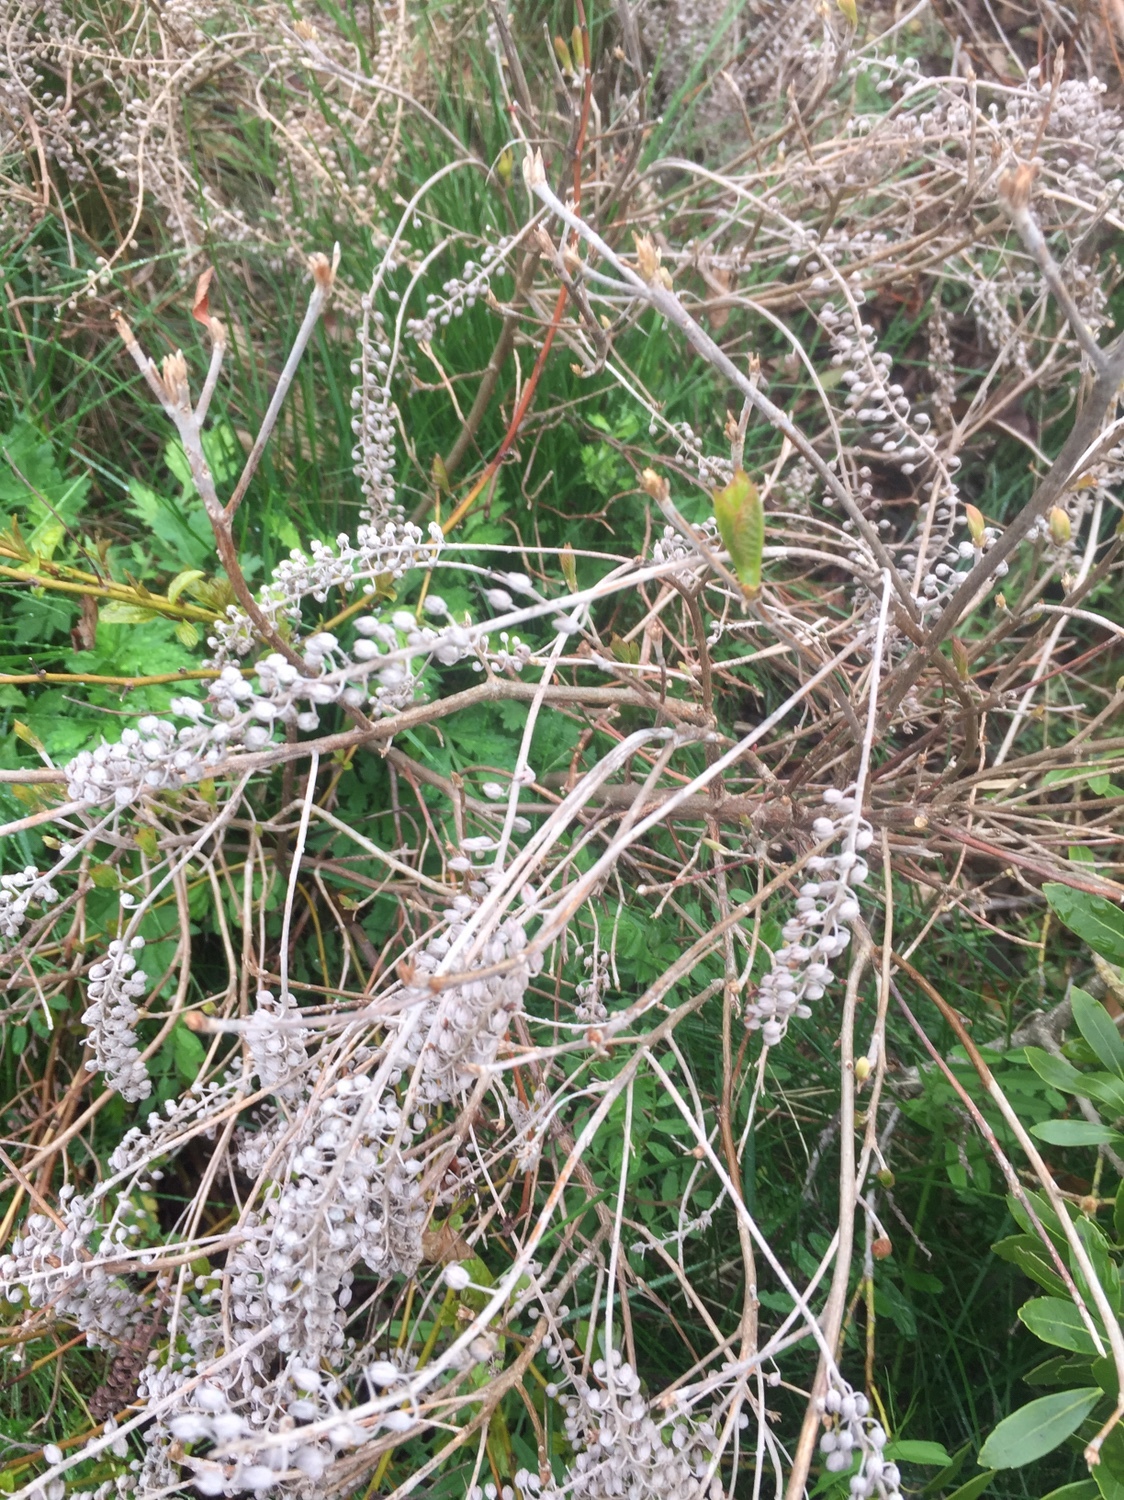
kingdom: Plantae
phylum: Tracheophyta
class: Magnoliopsida
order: Ericales
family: Clethraceae
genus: Clethra
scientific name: Clethra alnifolia
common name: Sweet pepperbush
